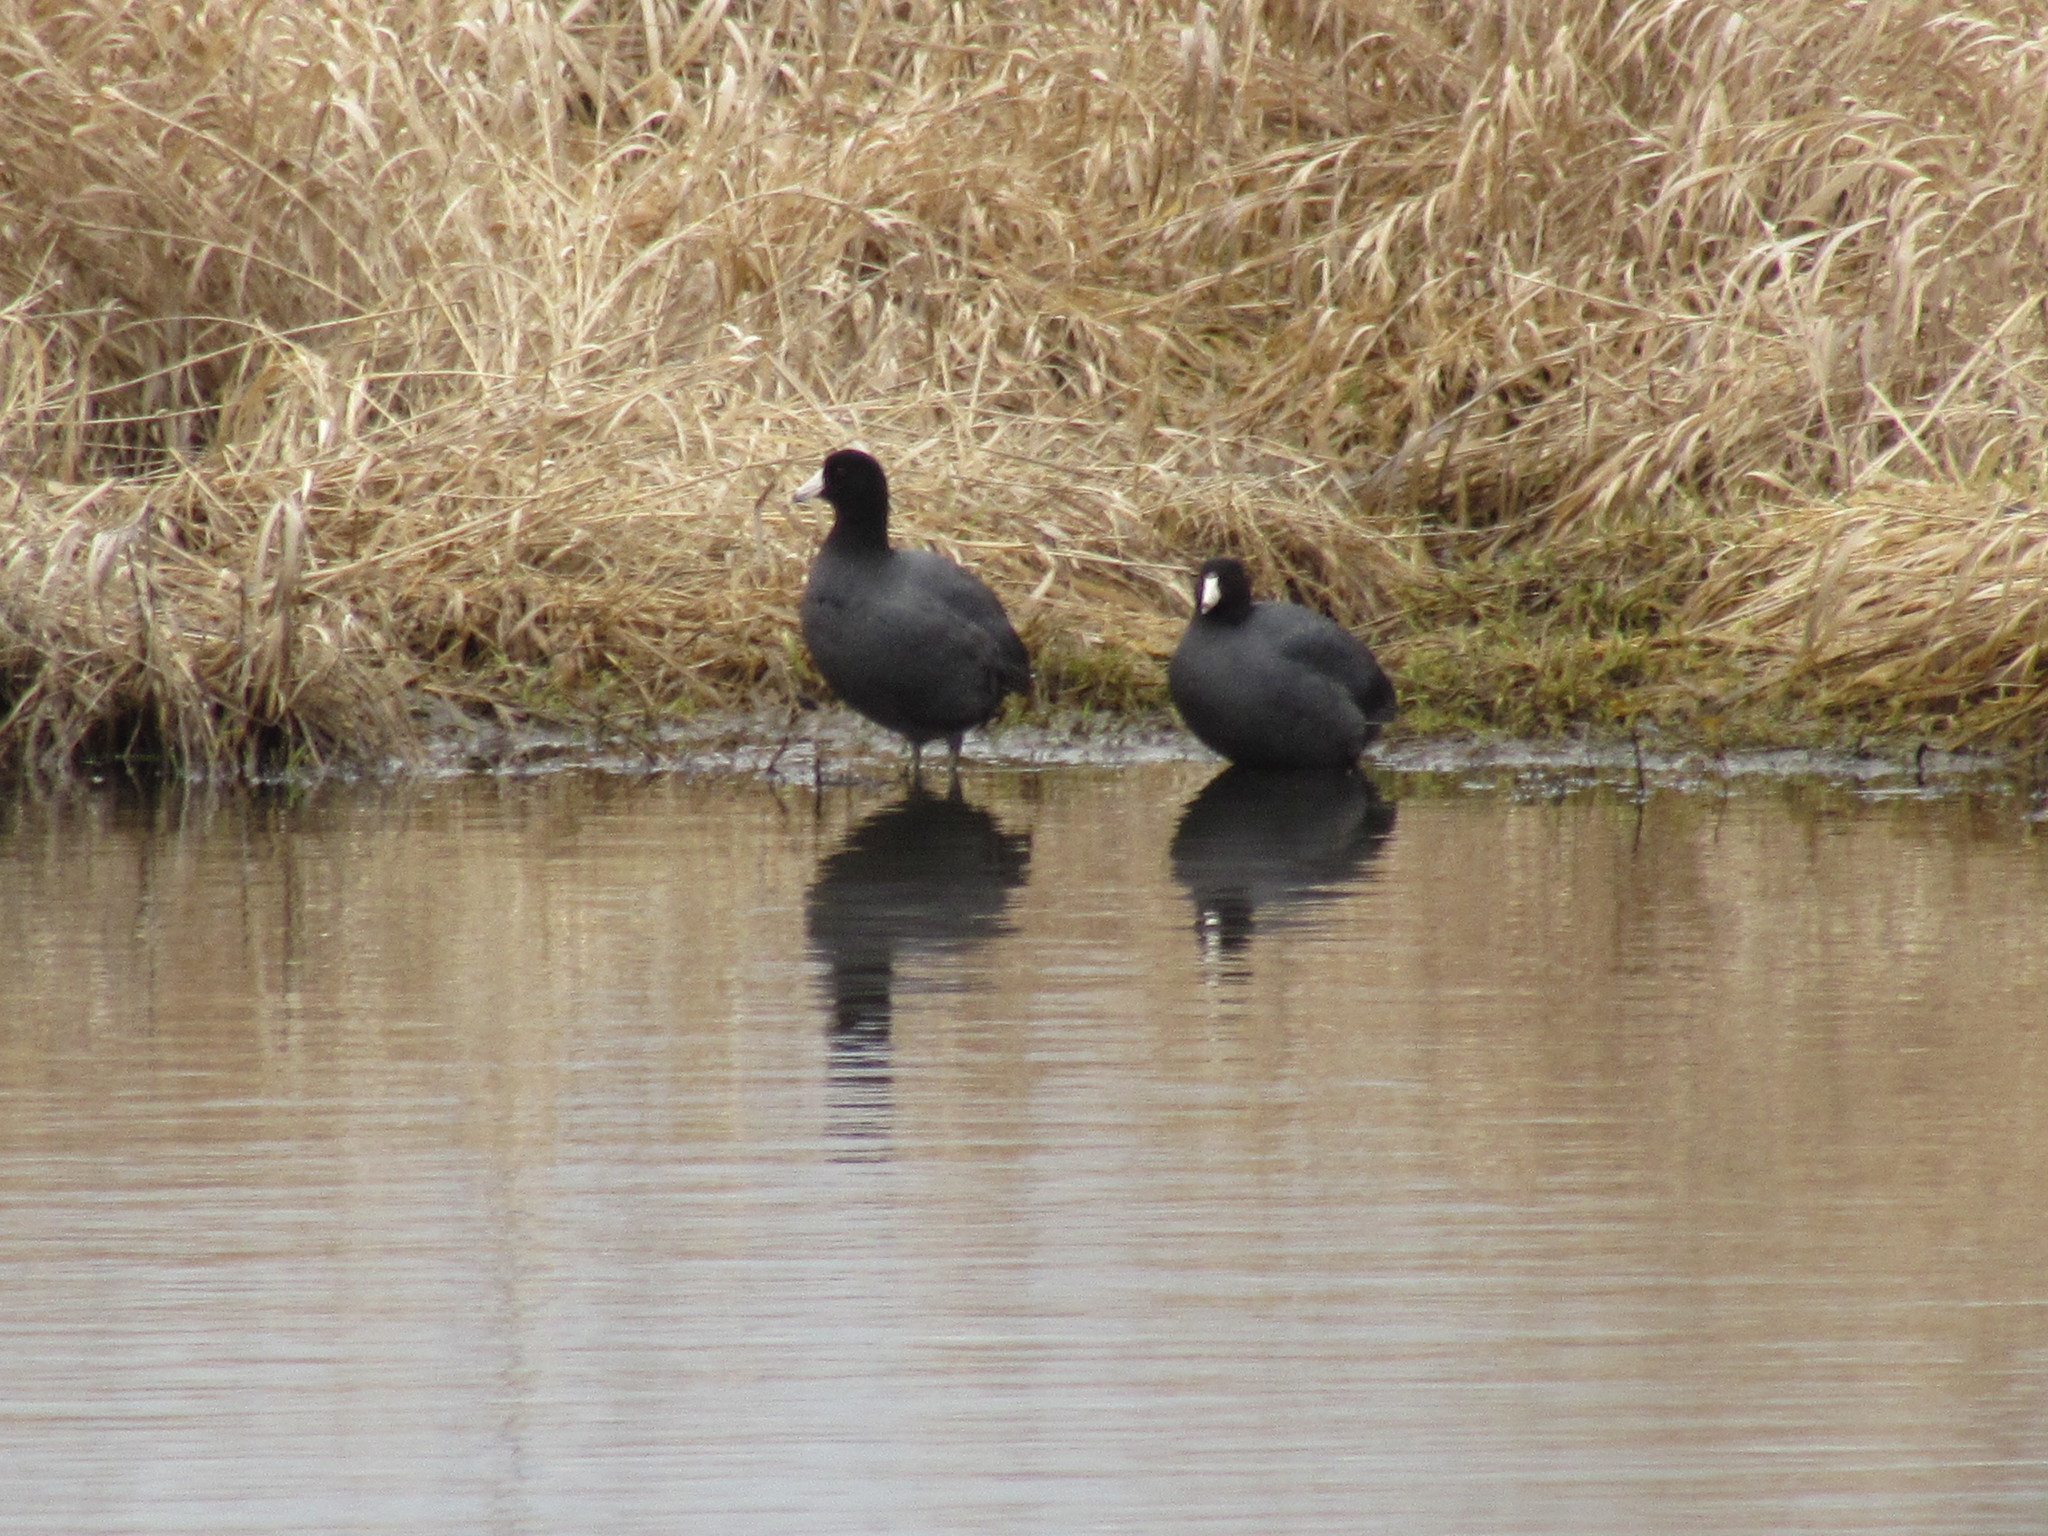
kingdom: Animalia
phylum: Chordata
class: Aves
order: Gruiformes
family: Rallidae
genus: Fulica
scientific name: Fulica americana
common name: American coot
